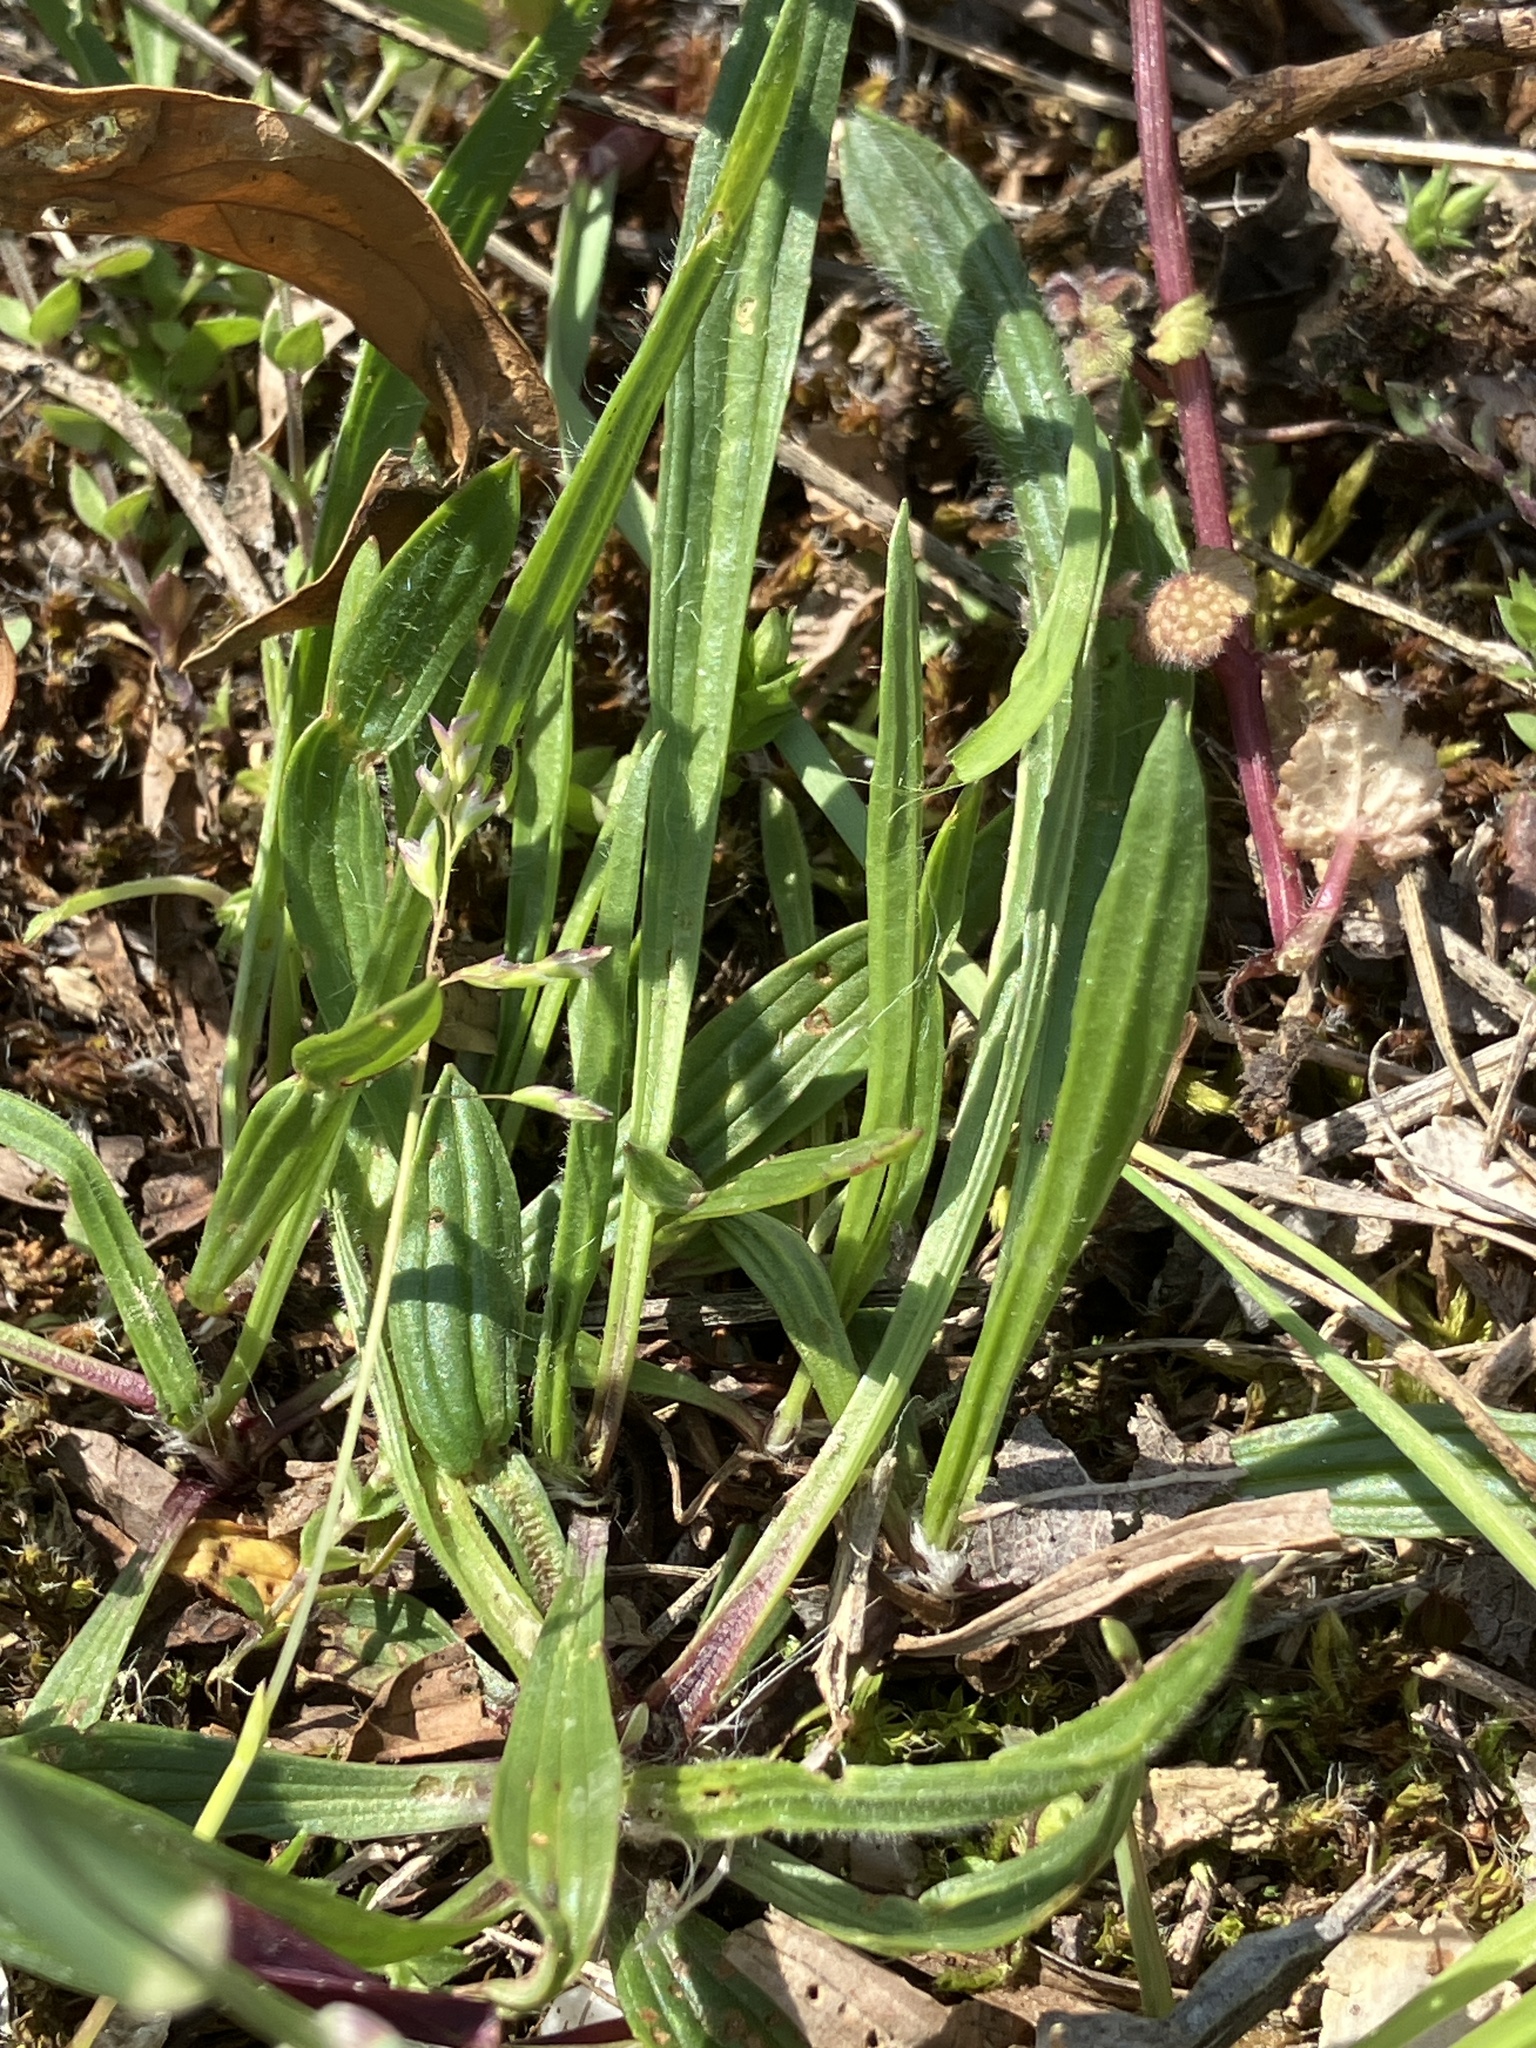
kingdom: Plantae
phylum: Tracheophyta
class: Magnoliopsida
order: Lamiales
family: Plantaginaceae
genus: Plantago
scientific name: Plantago lanceolata
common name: Ribwort plantain
